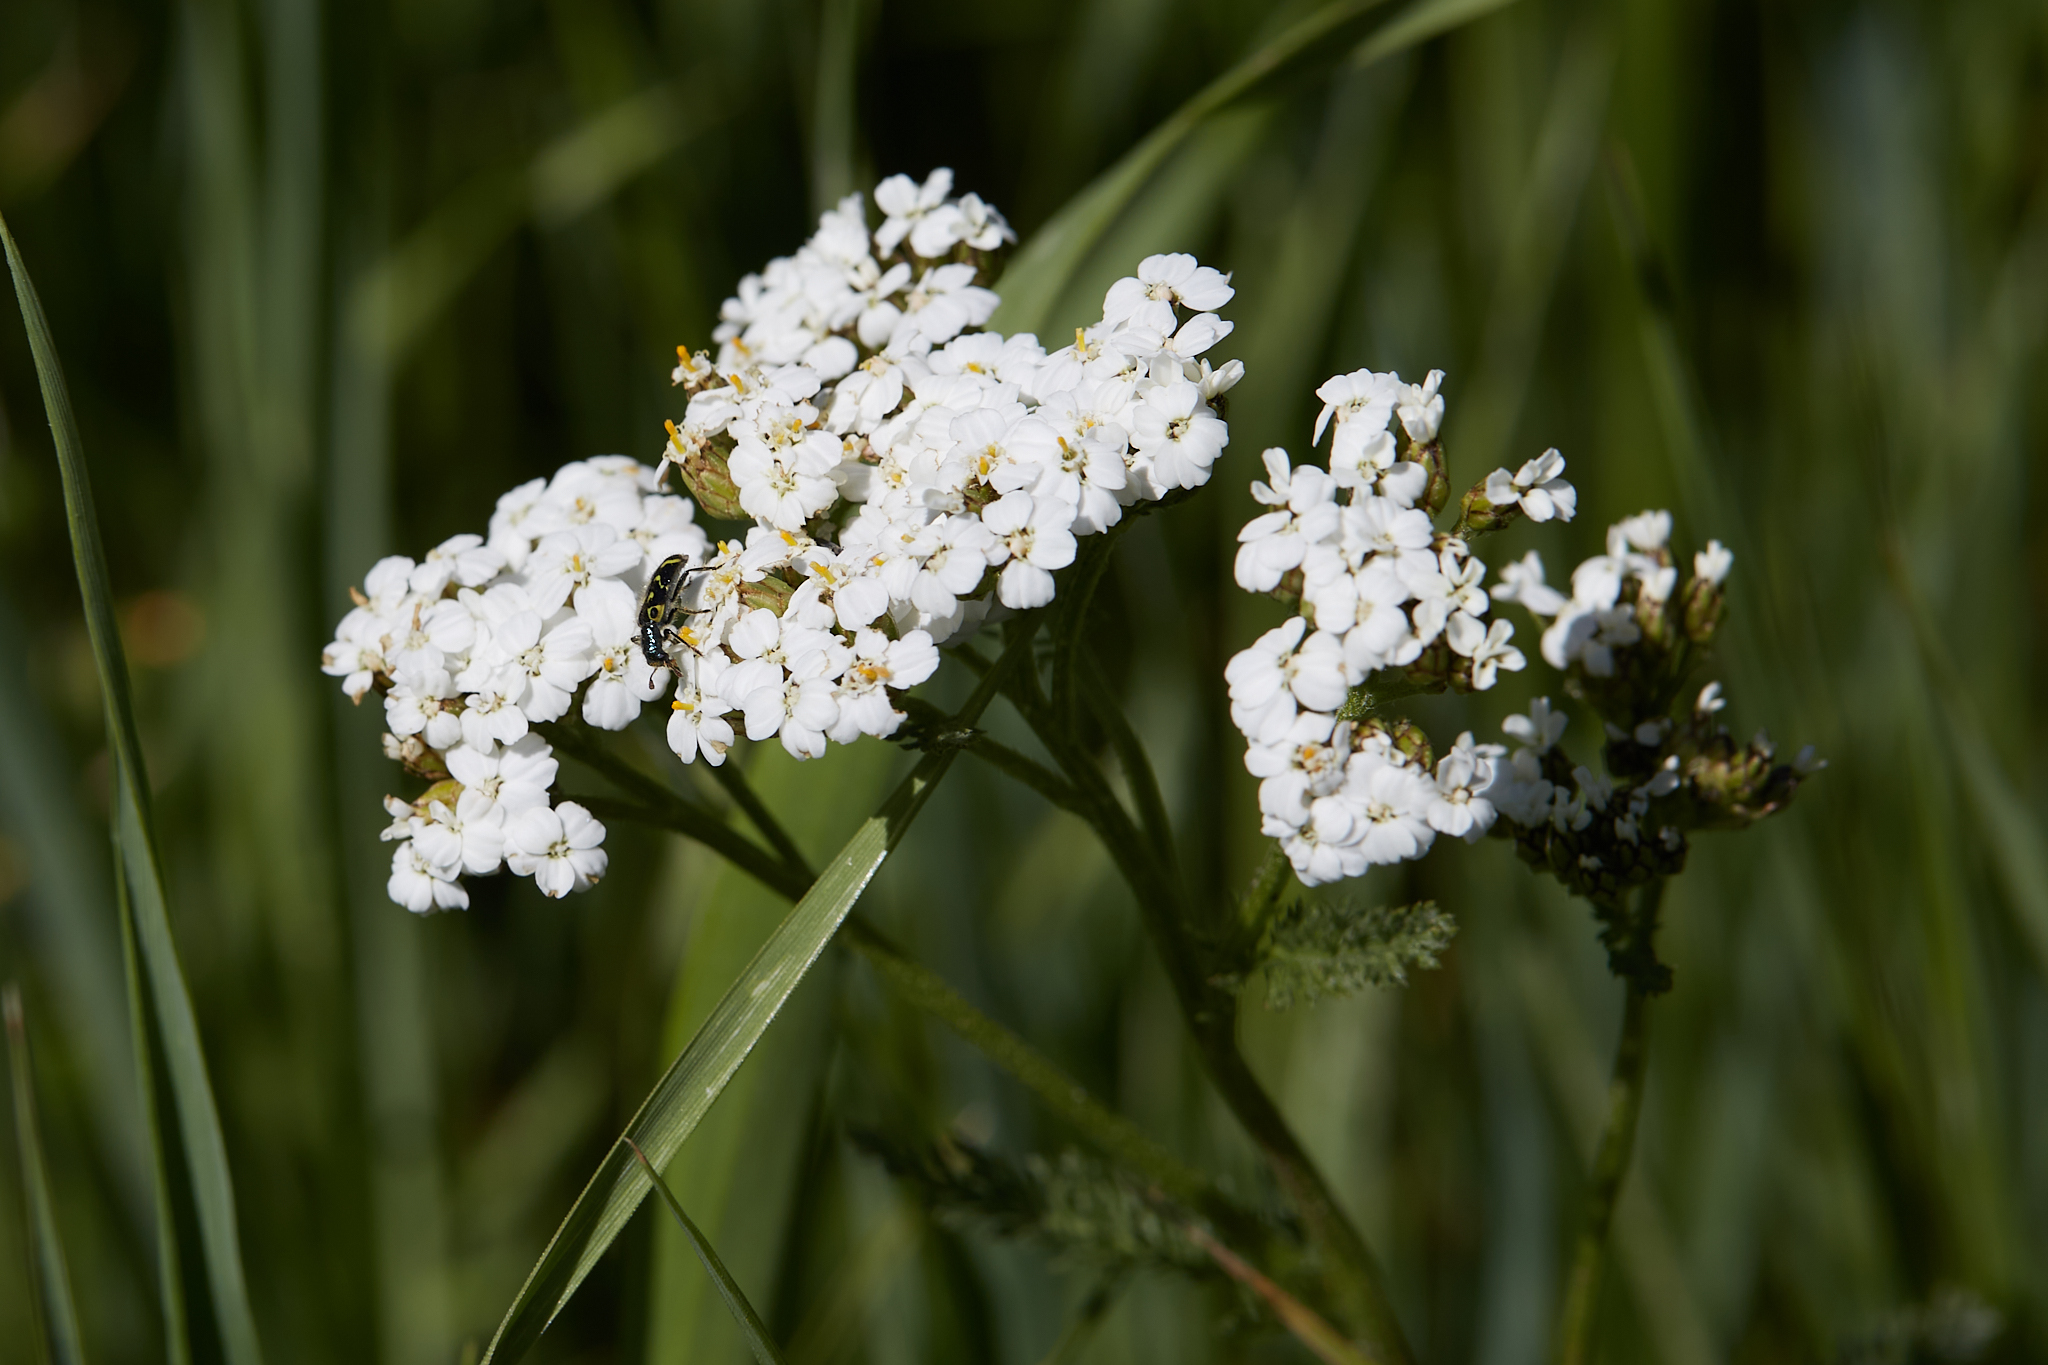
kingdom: Plantae
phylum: Tracheophyta
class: Magnoliopsida
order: Asterales
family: Asteraceae
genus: Achillea
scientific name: Achillea millefolium
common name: Yarrow
